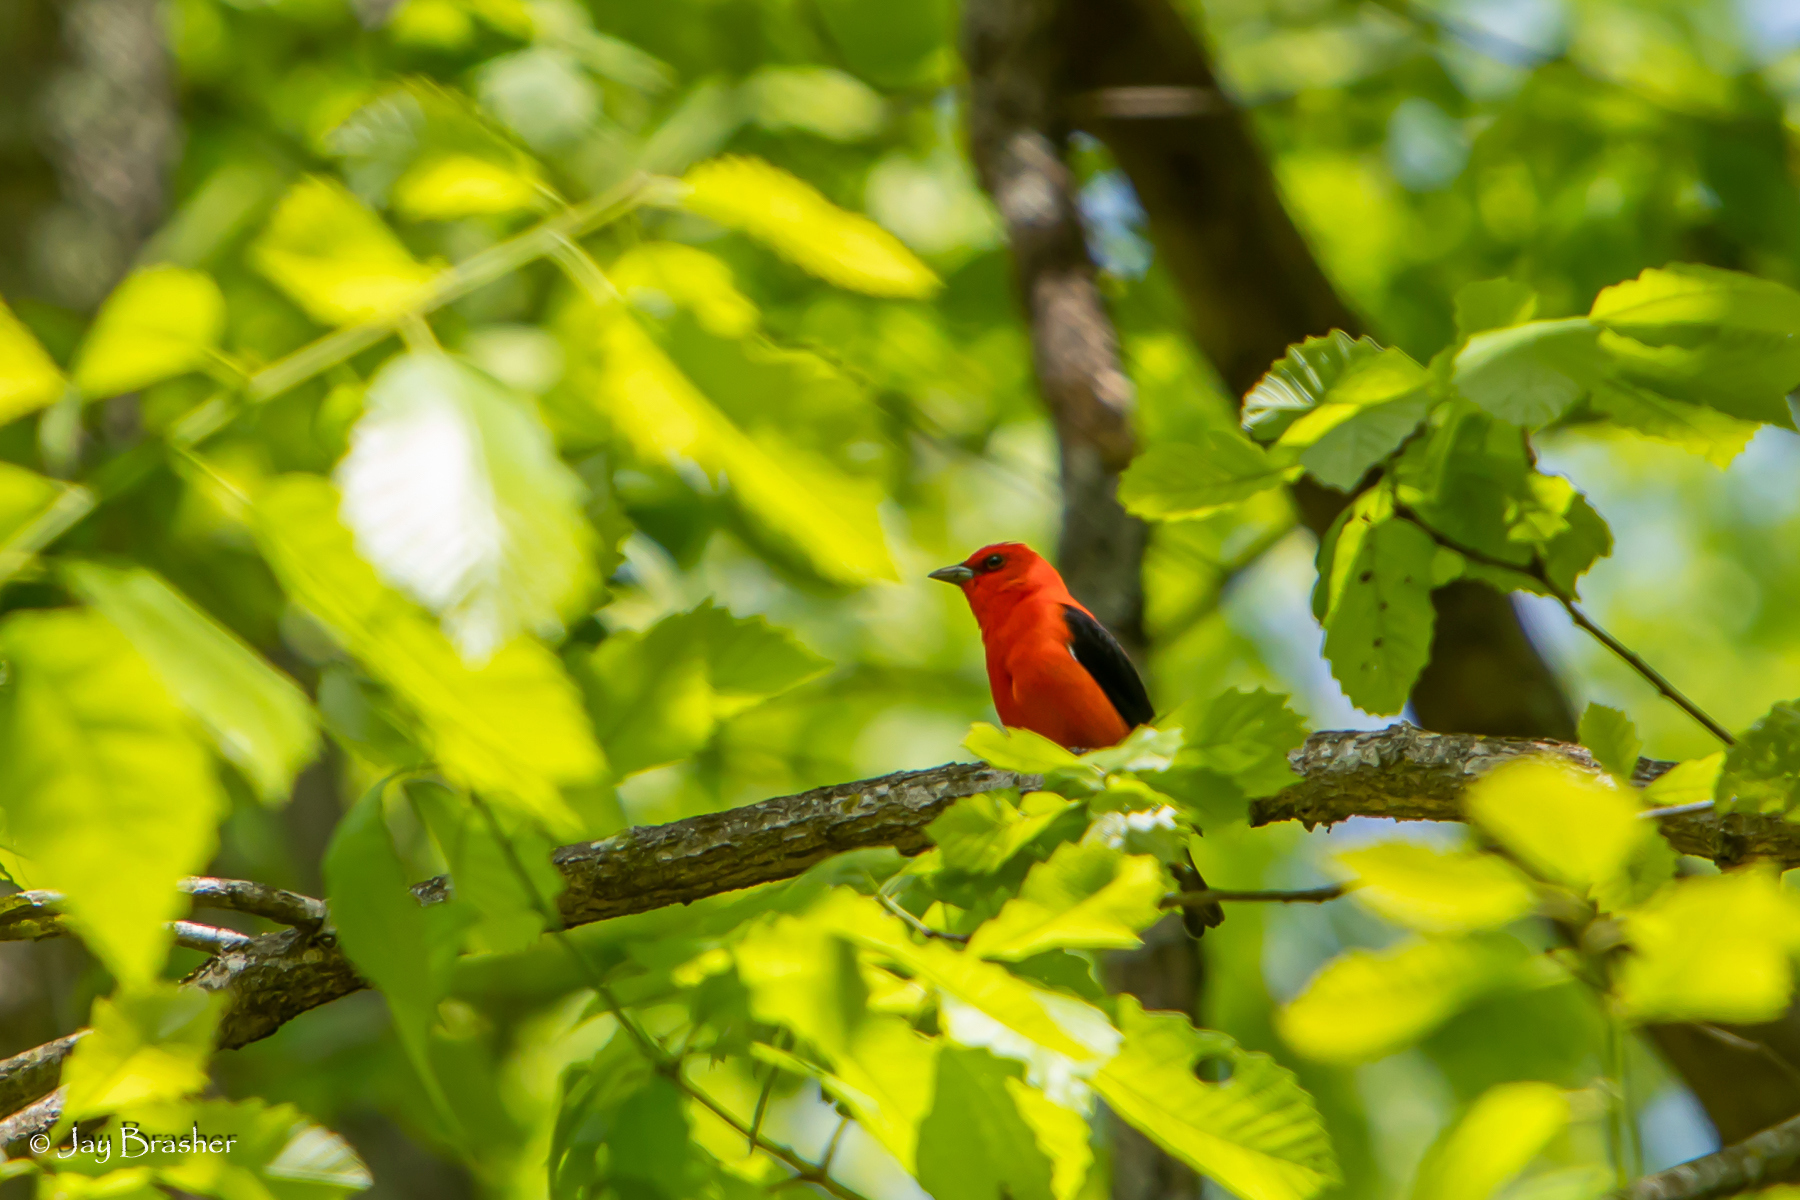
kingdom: Animalia
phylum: Chordata
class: Aves
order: Passeriformes
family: Cardinalidae
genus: Piranga
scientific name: Piranga olivacea
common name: Scarlet tanager
